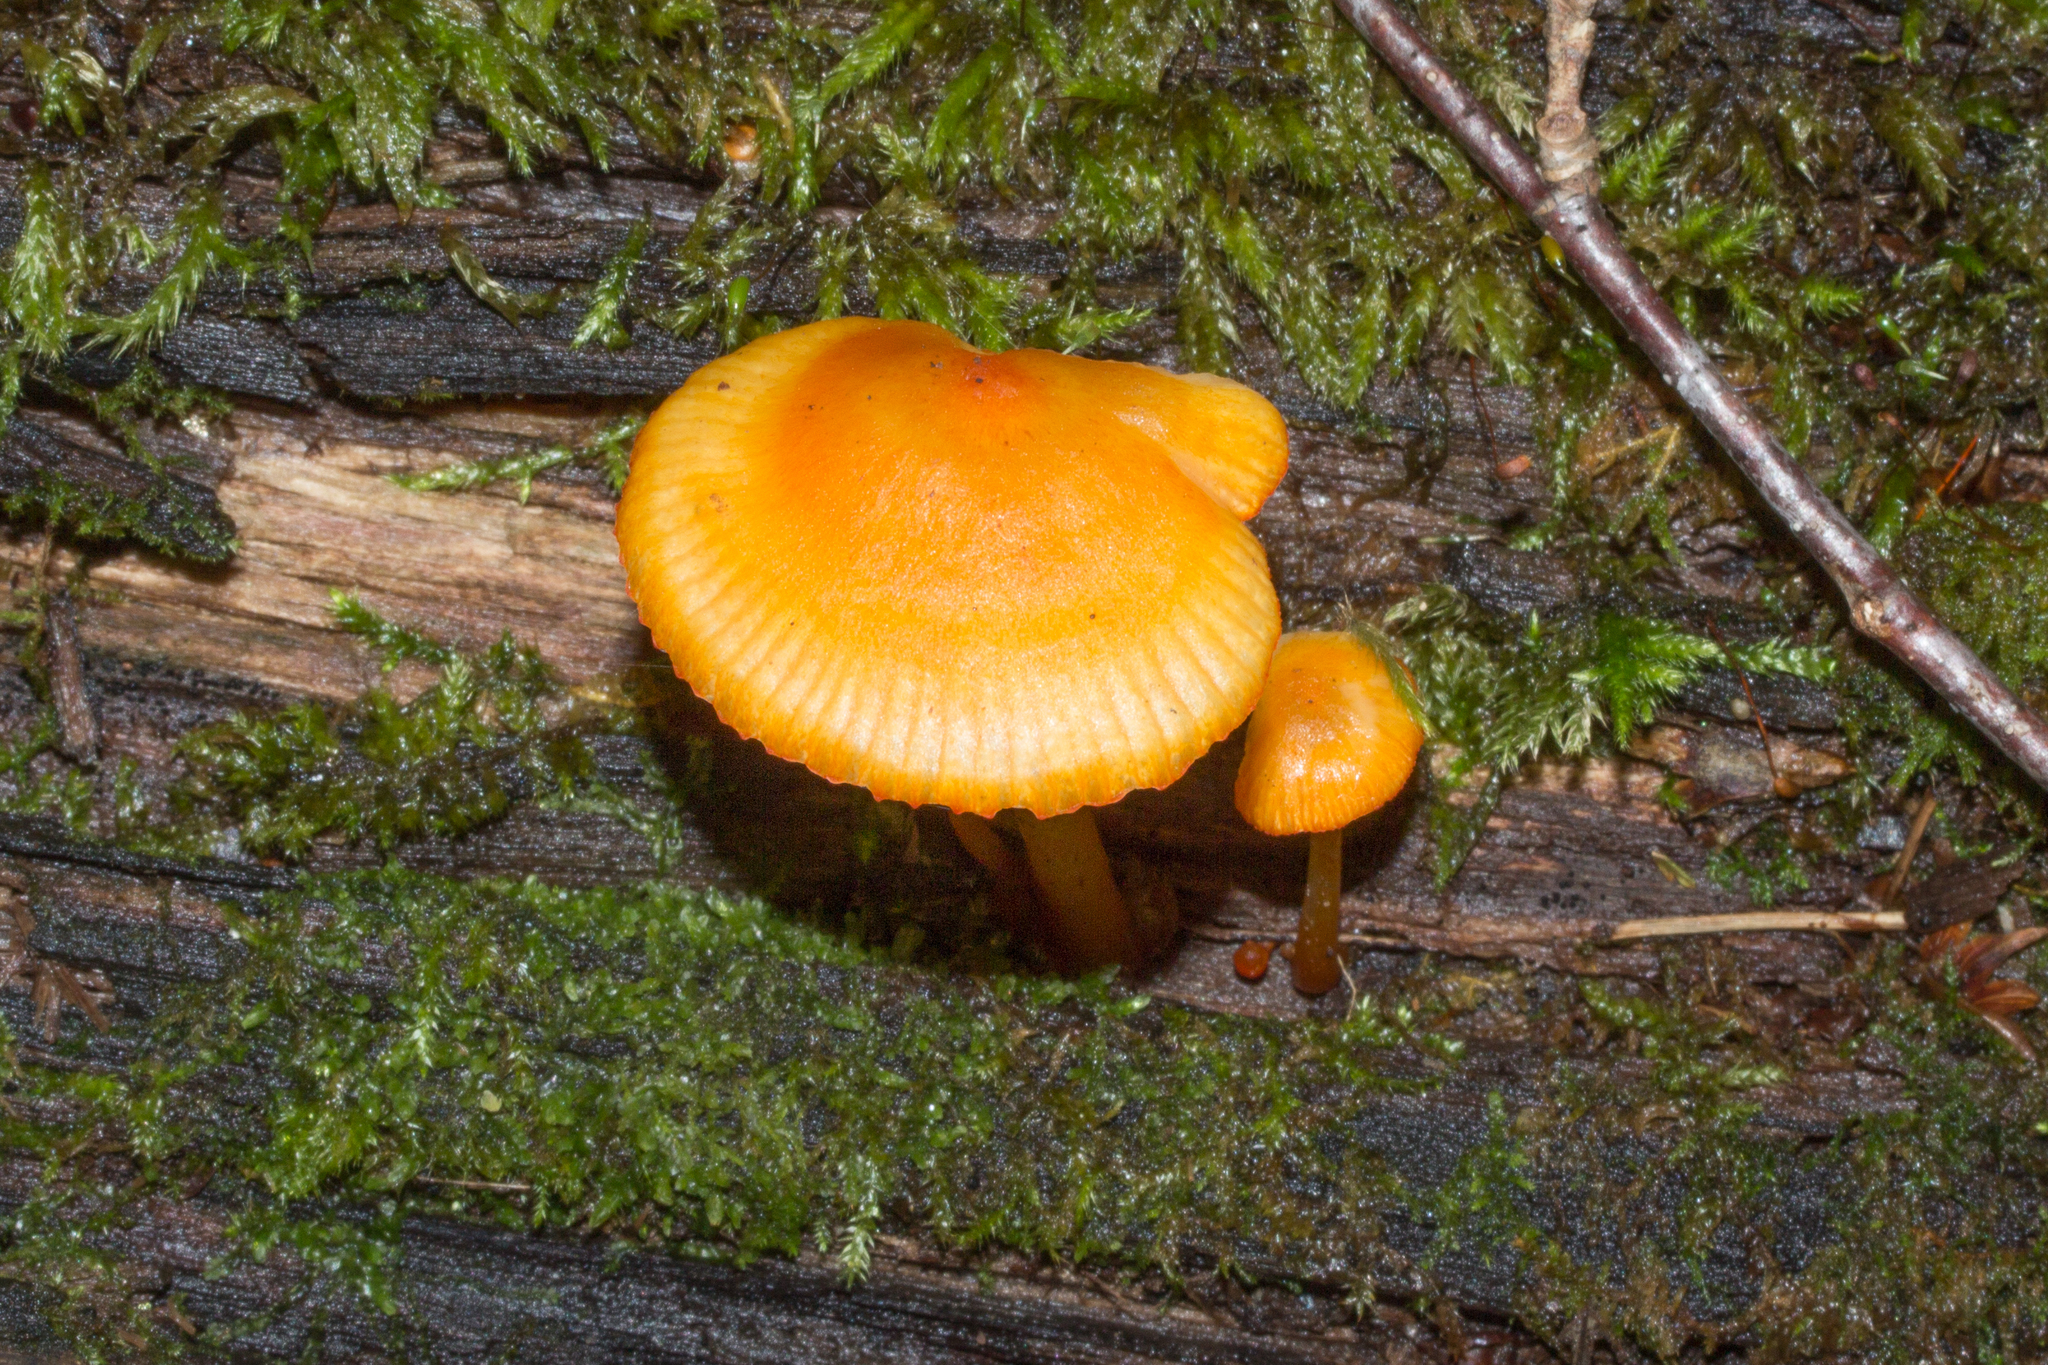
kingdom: Fungi
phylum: Basidiomycota
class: Agaricomycetes
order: Agaricales
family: Mycenaceae
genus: Mycena
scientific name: Mycena leaiana
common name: Orange mycena
